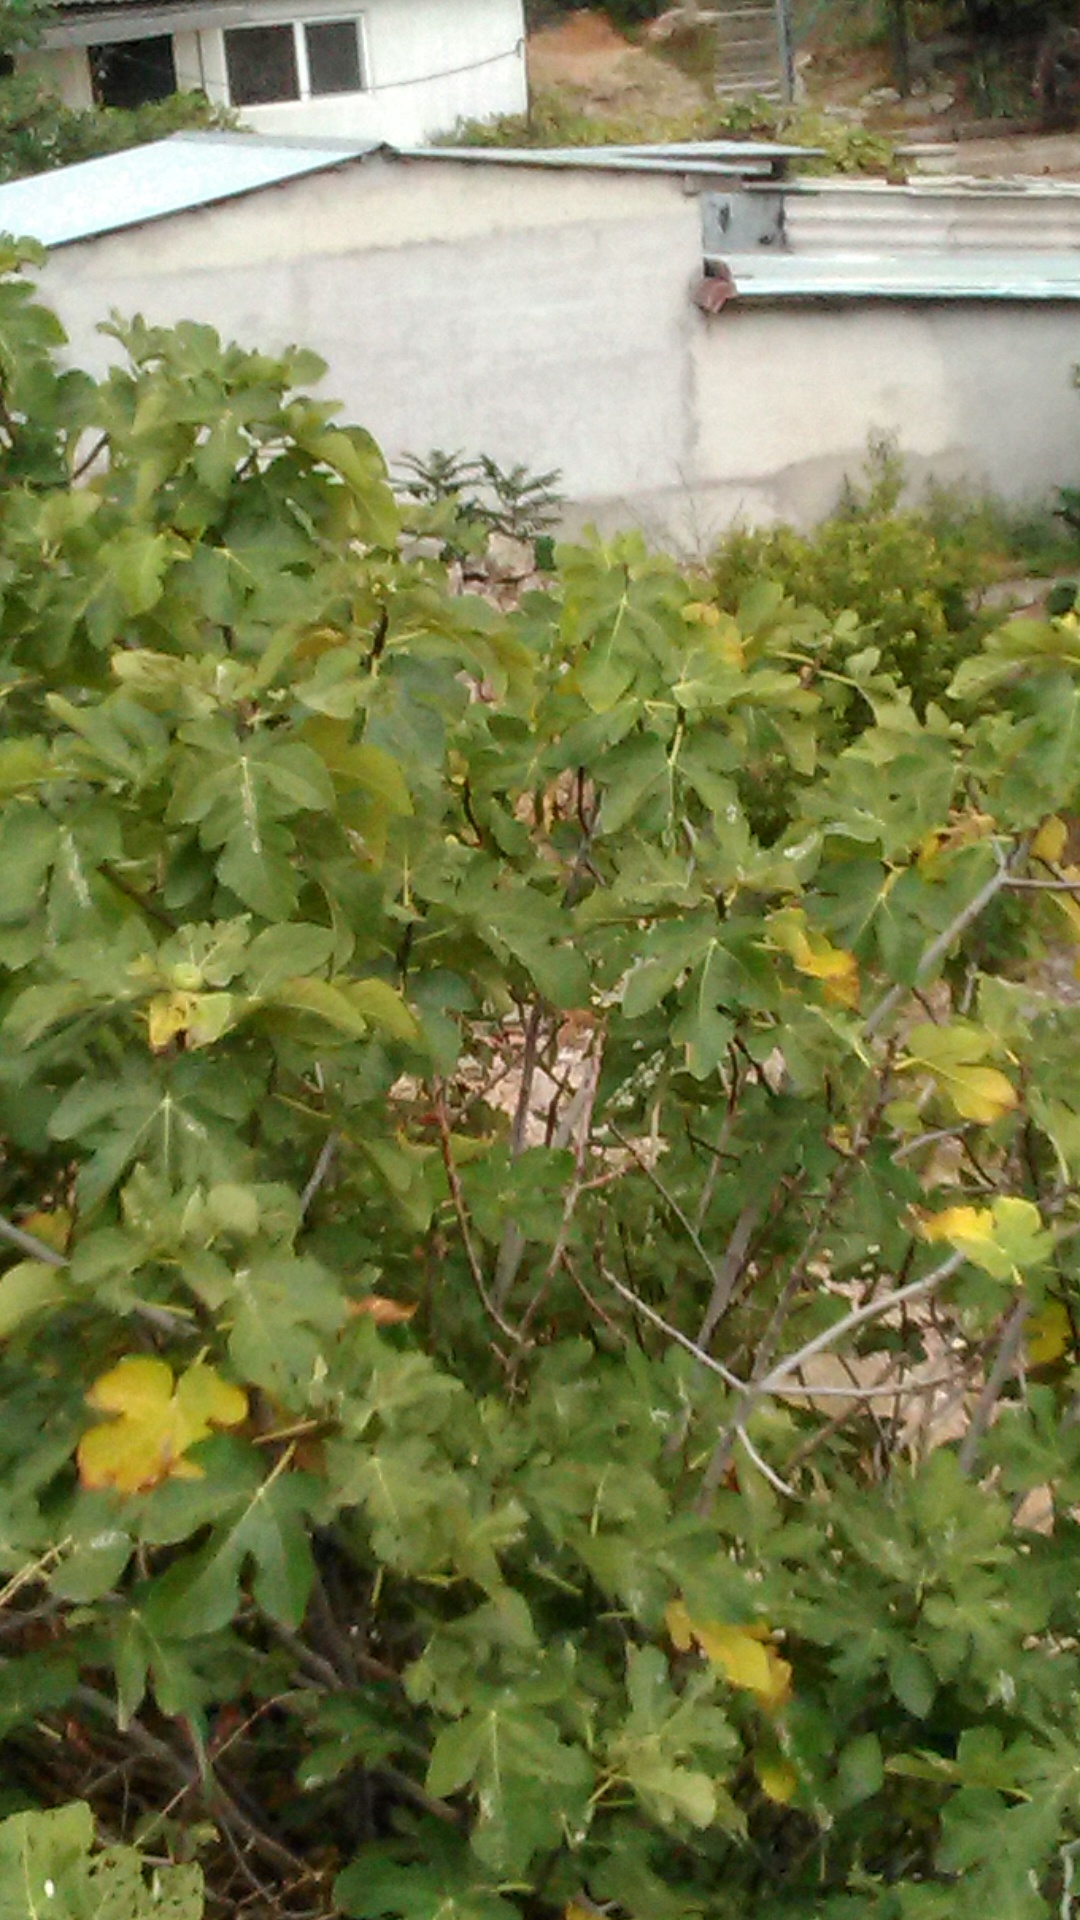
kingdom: Plantae
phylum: Tracheophyta
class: Magnoliopsida
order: Rosales
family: Moraceae
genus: Ficus
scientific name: Ficus carica
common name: Fig
